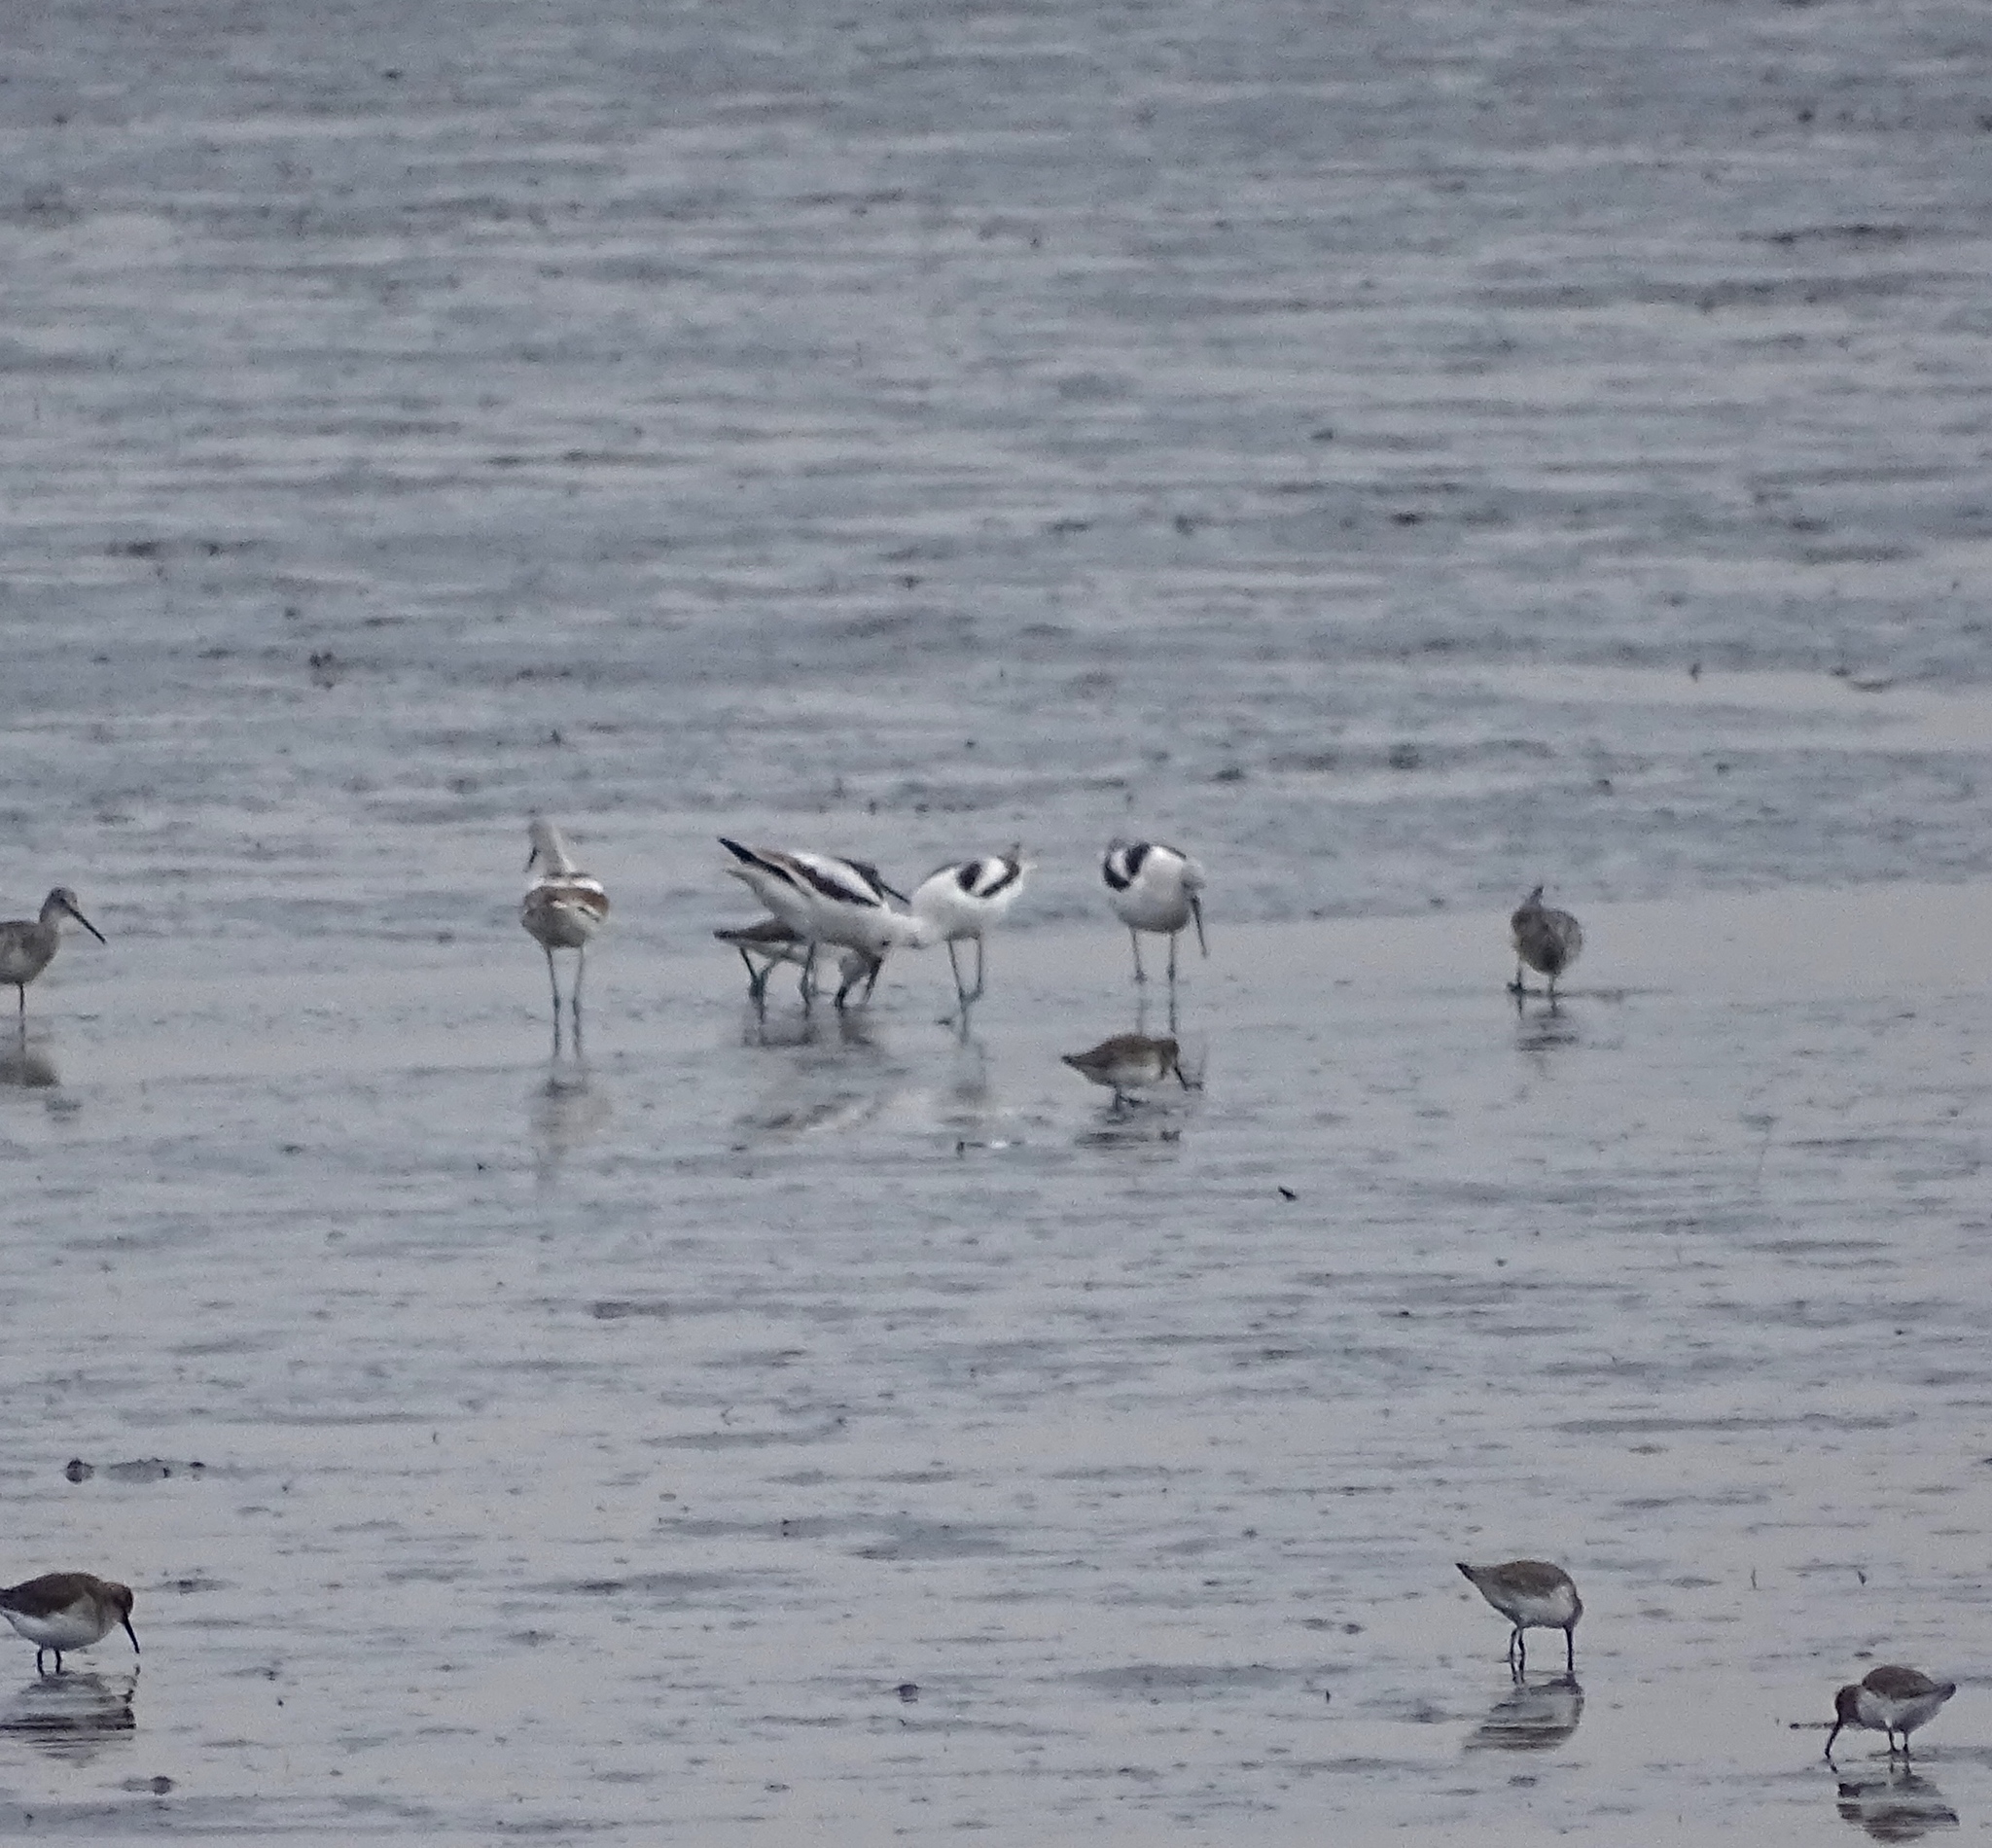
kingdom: Animalia
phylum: Chordata
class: Aves
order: Charadriiformes
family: Recurvirostridae
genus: Recurvirostra
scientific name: Recurvirostra americana
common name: American avocet
